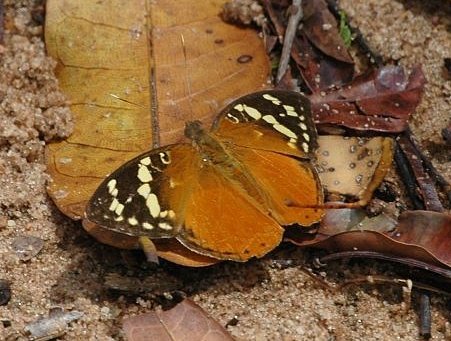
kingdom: Animalia
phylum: Arthropoda
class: Insecta
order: Lepidoptera
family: Nymphalidae
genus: Aterica
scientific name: Aterica rabena
